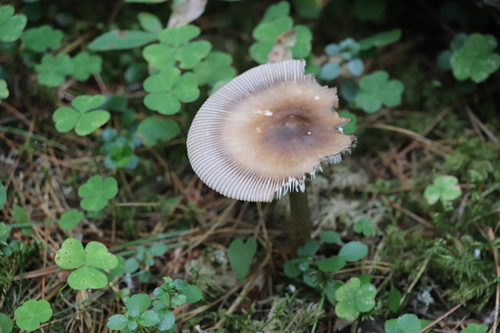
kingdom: Fungi
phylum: Basidiomycota
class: Agaricomycetes
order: Agaricales
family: Amanitaceae
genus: Amanita
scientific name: Amanita battarrae
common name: Banded amanita
